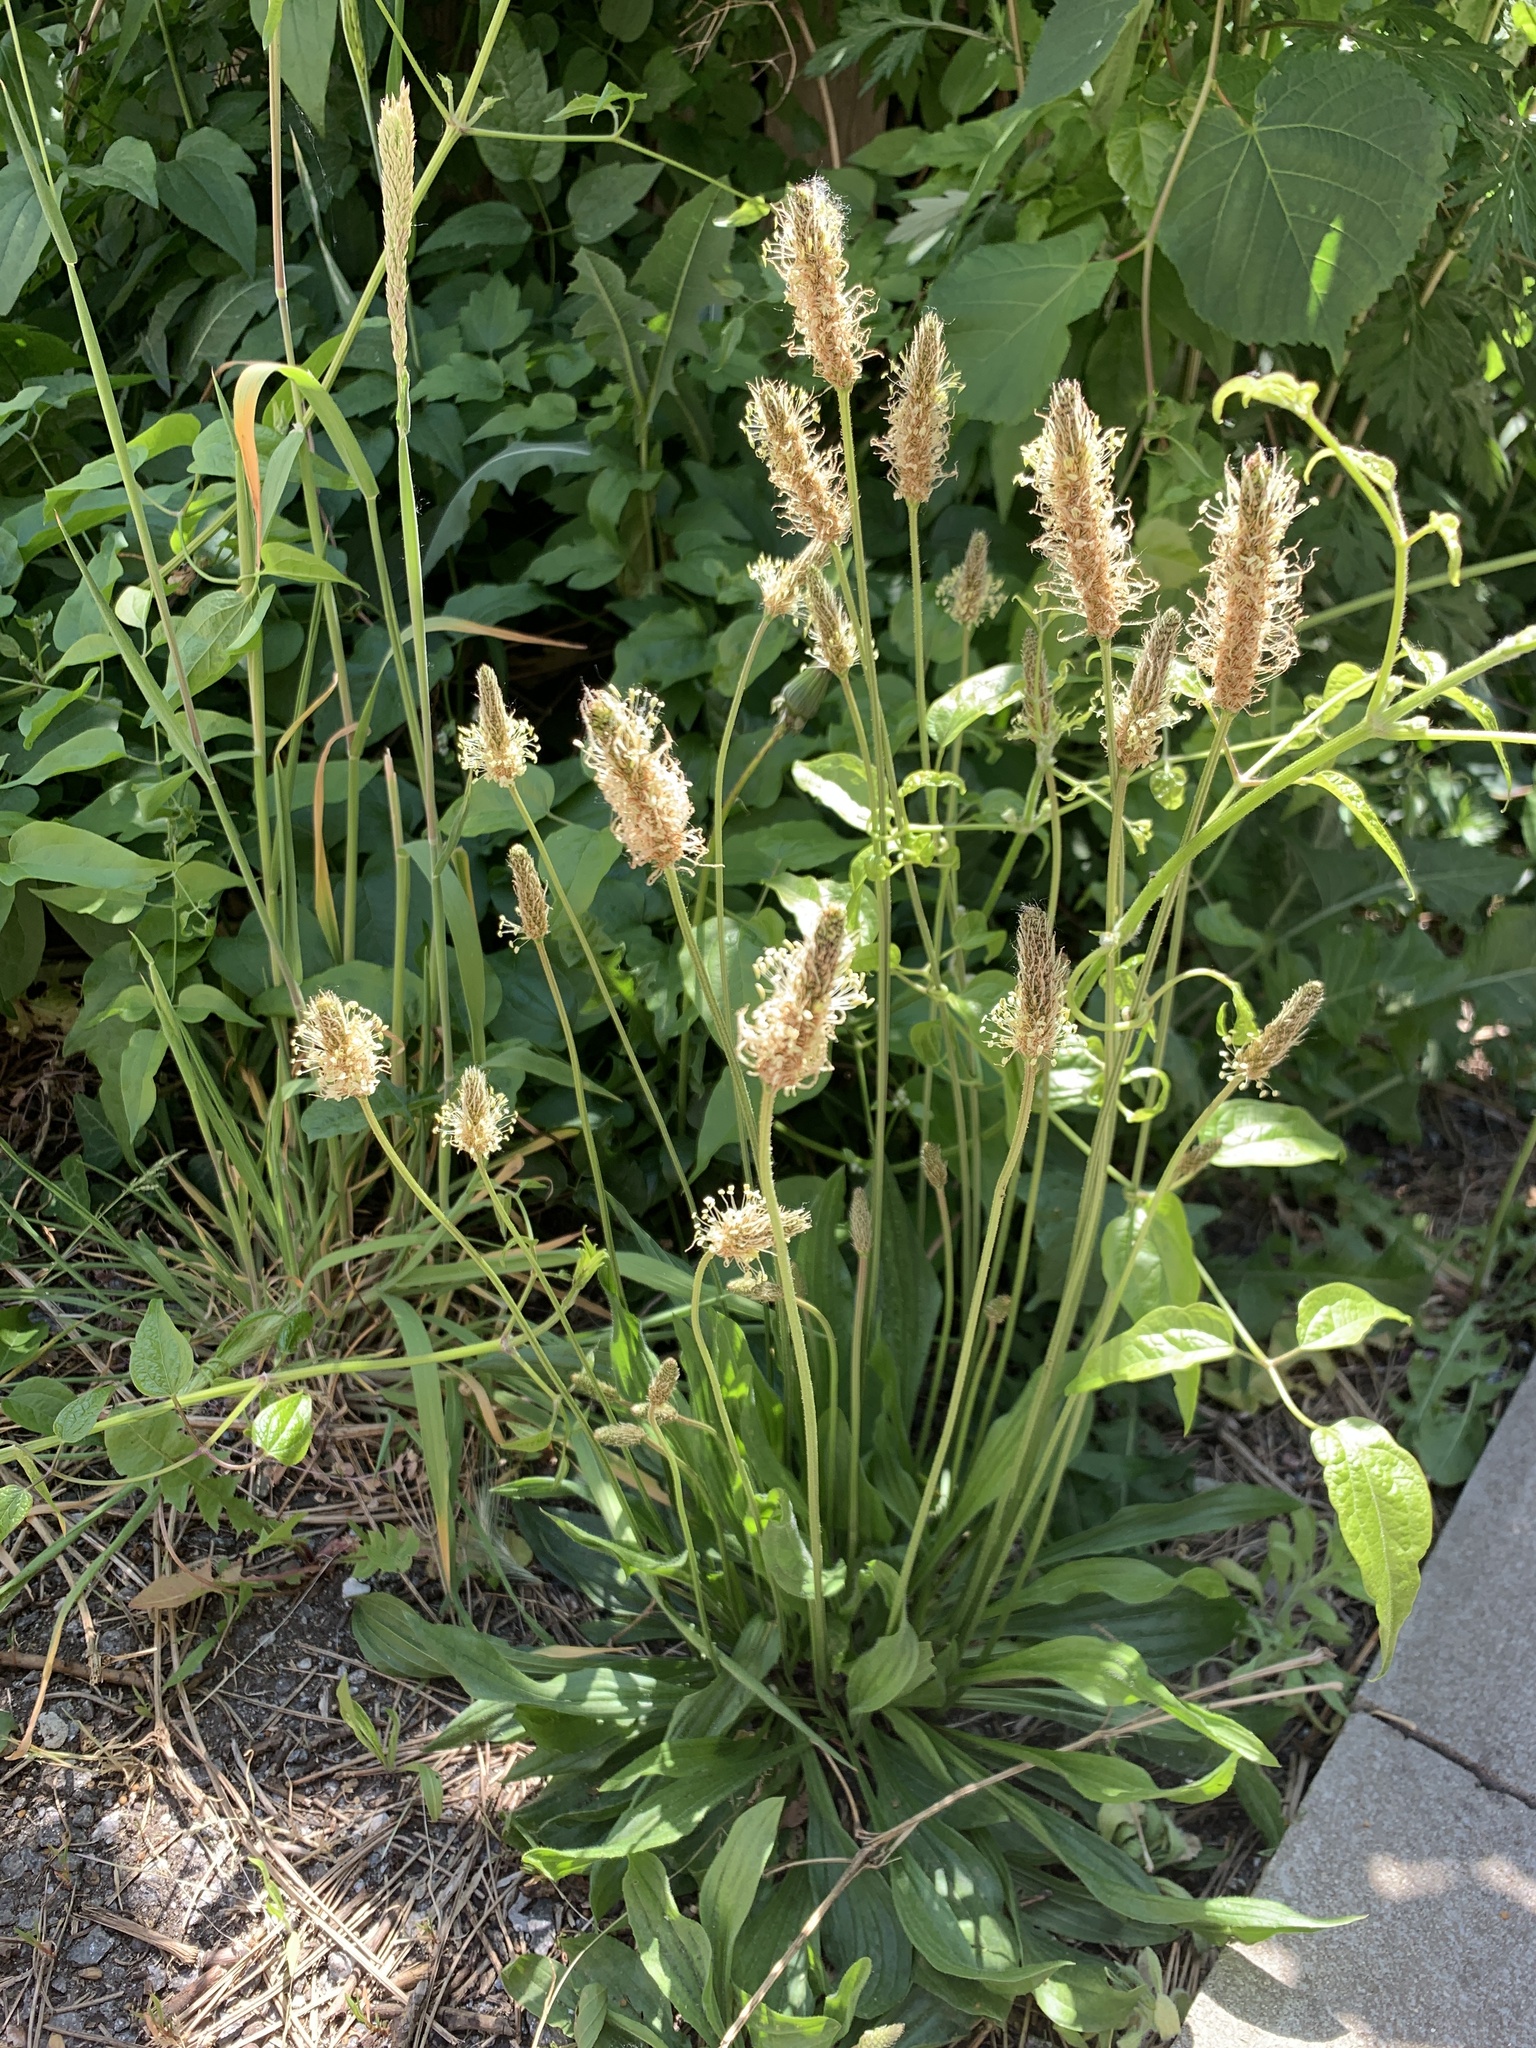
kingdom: Plantae
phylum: Tracheophyta
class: Magnoliopsida
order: Lamiales
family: Plantaginaceae
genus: Plantago
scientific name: Plantago lanceolata
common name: Ribwort plantain
